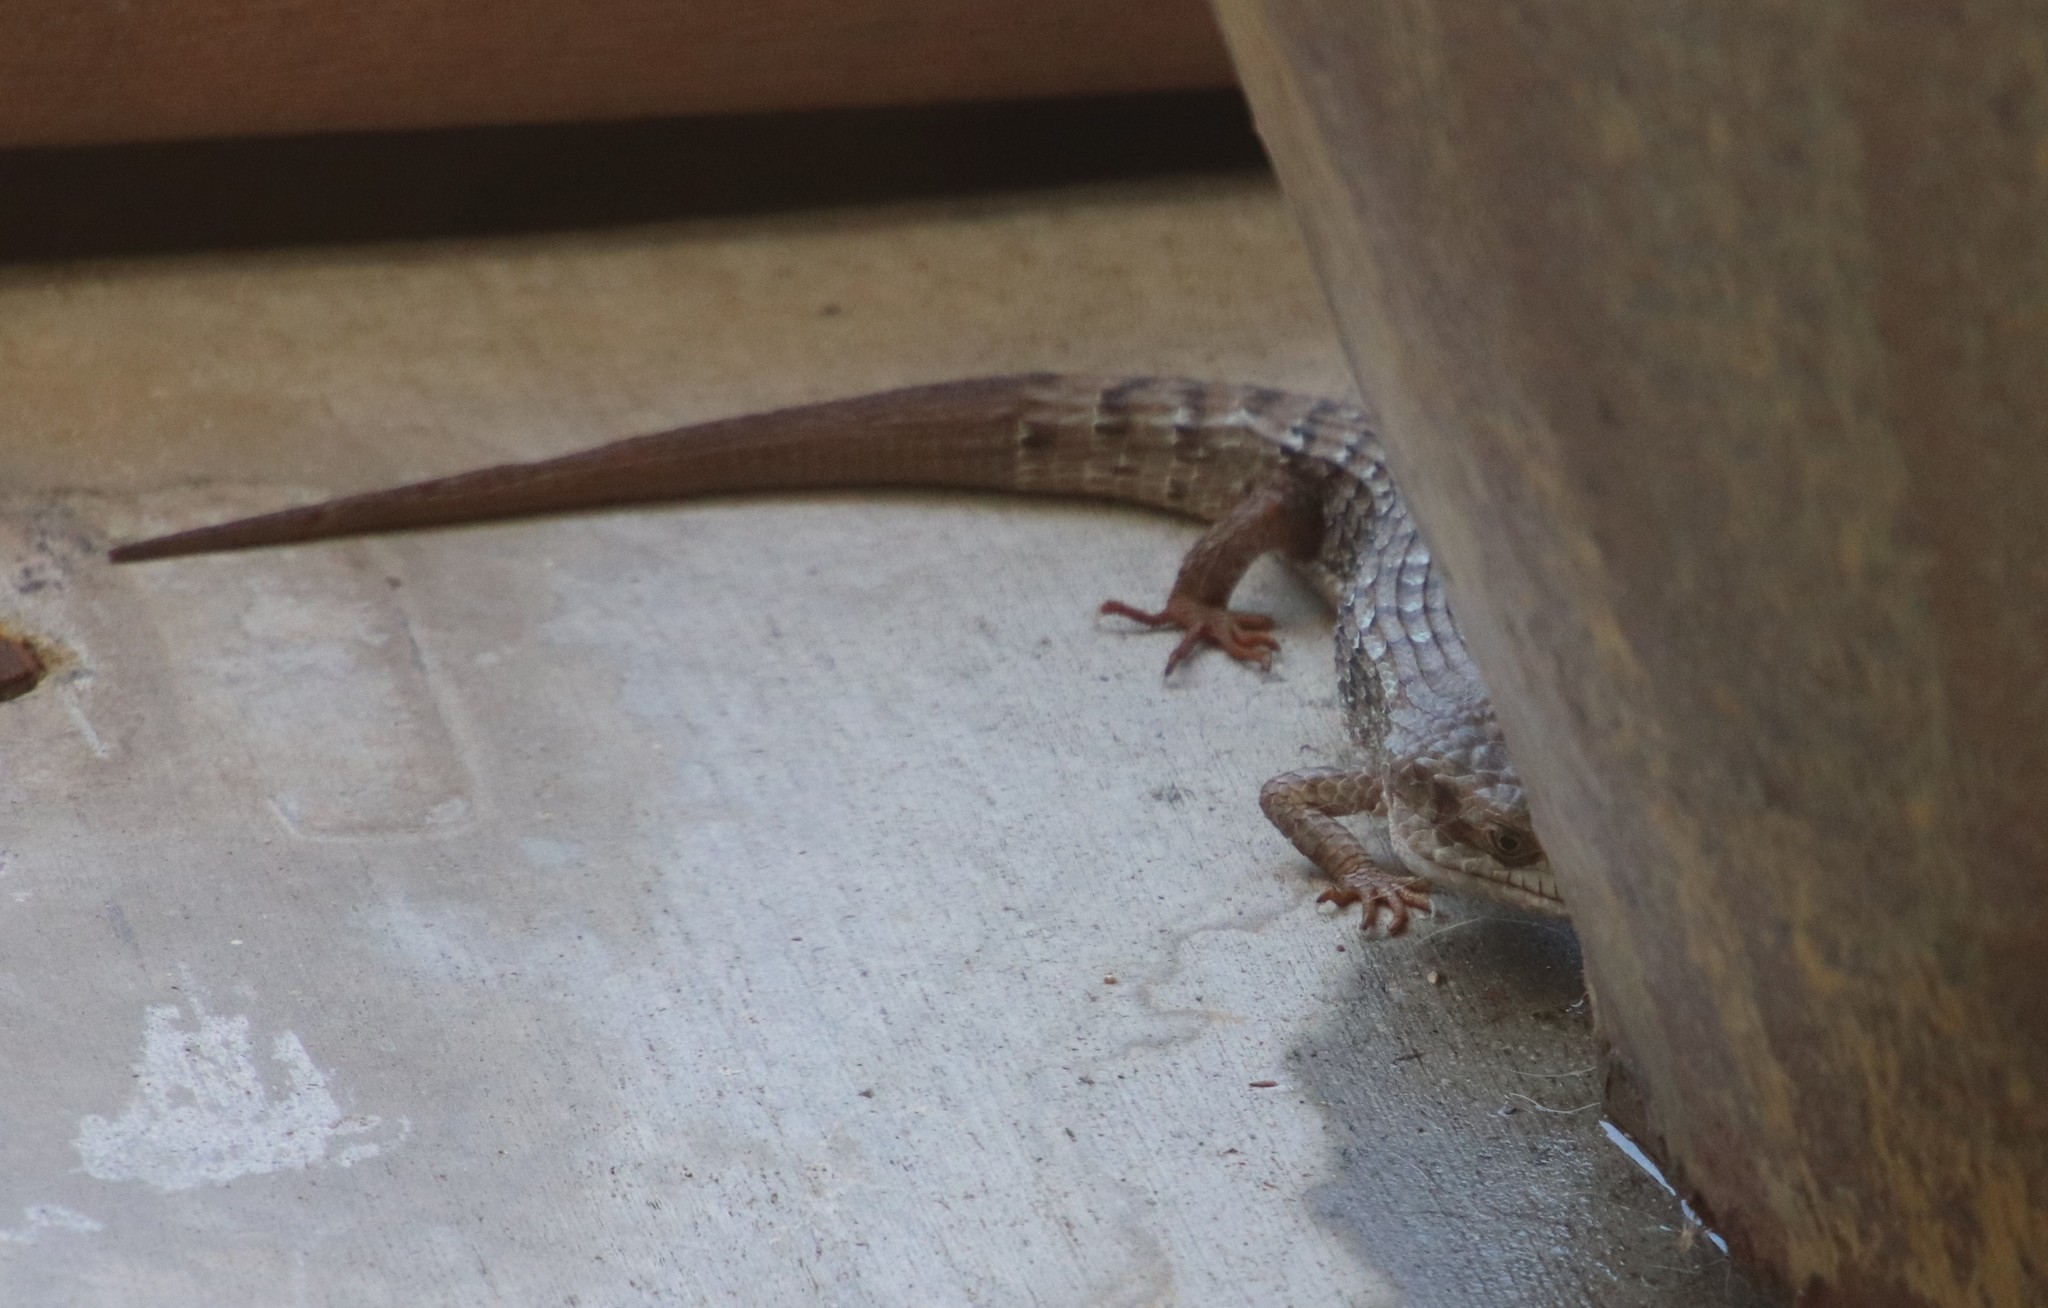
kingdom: Animalia
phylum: Chordata
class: Squamata
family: Anguidae
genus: Elgaria
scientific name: Elgaria multicarinata
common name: Southern alligator lizard
